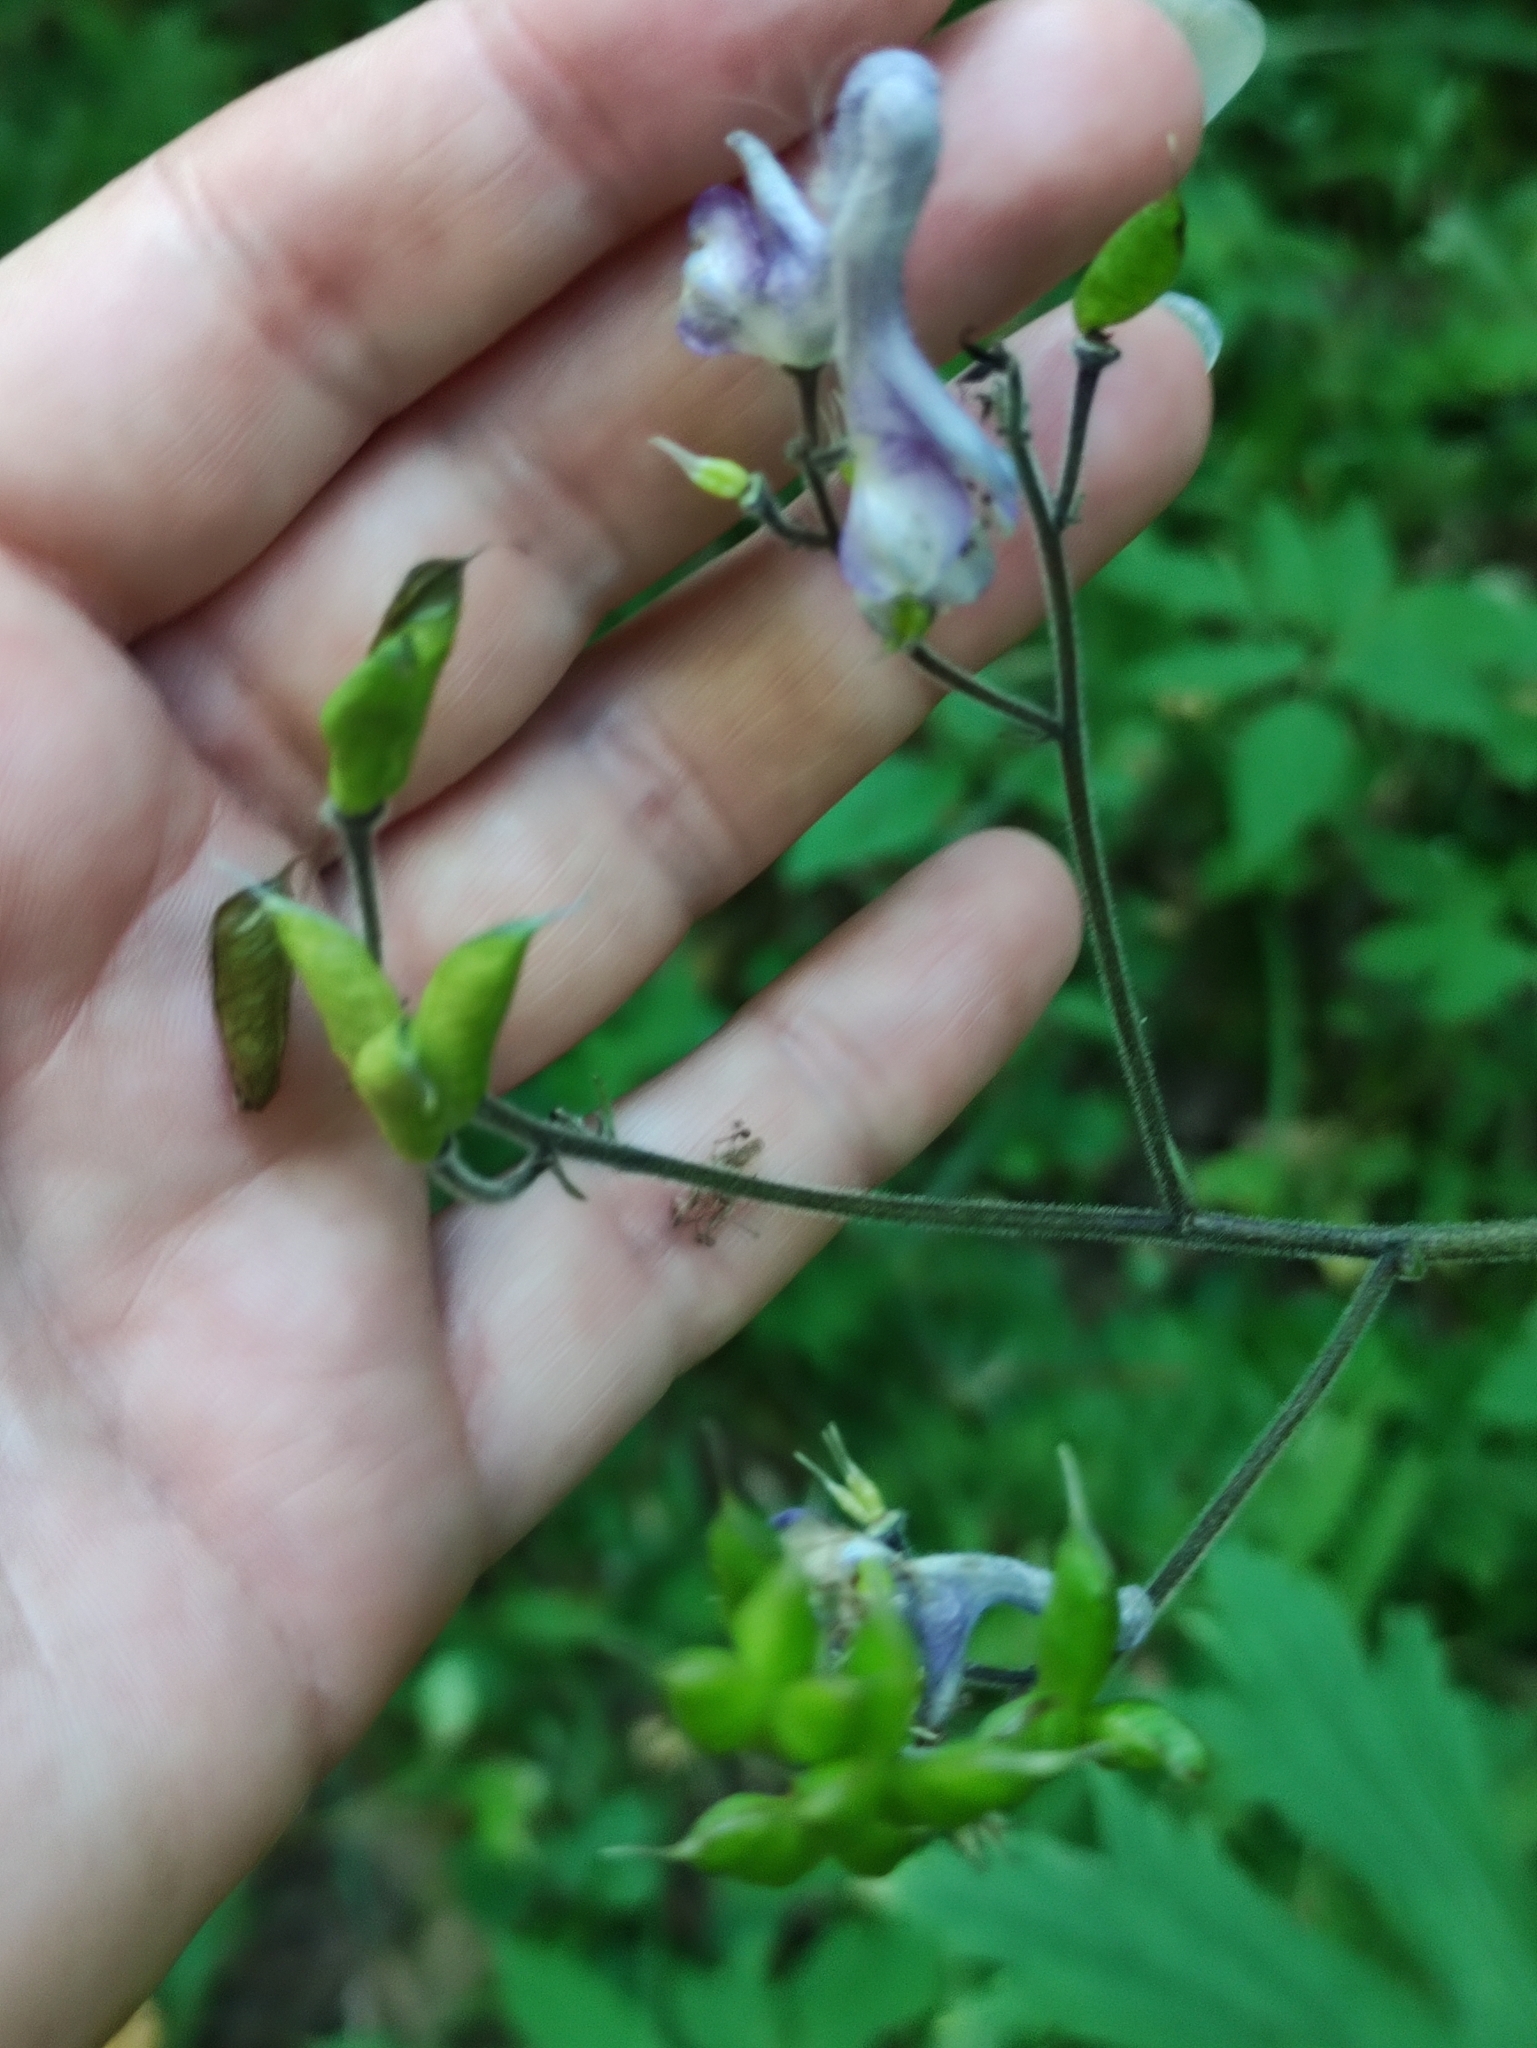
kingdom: Plantae
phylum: Tracheophyta
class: Magnoliopsida
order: Ranunculales
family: Ranunculaceae
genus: Aconitum
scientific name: Aconitum septentrionale
